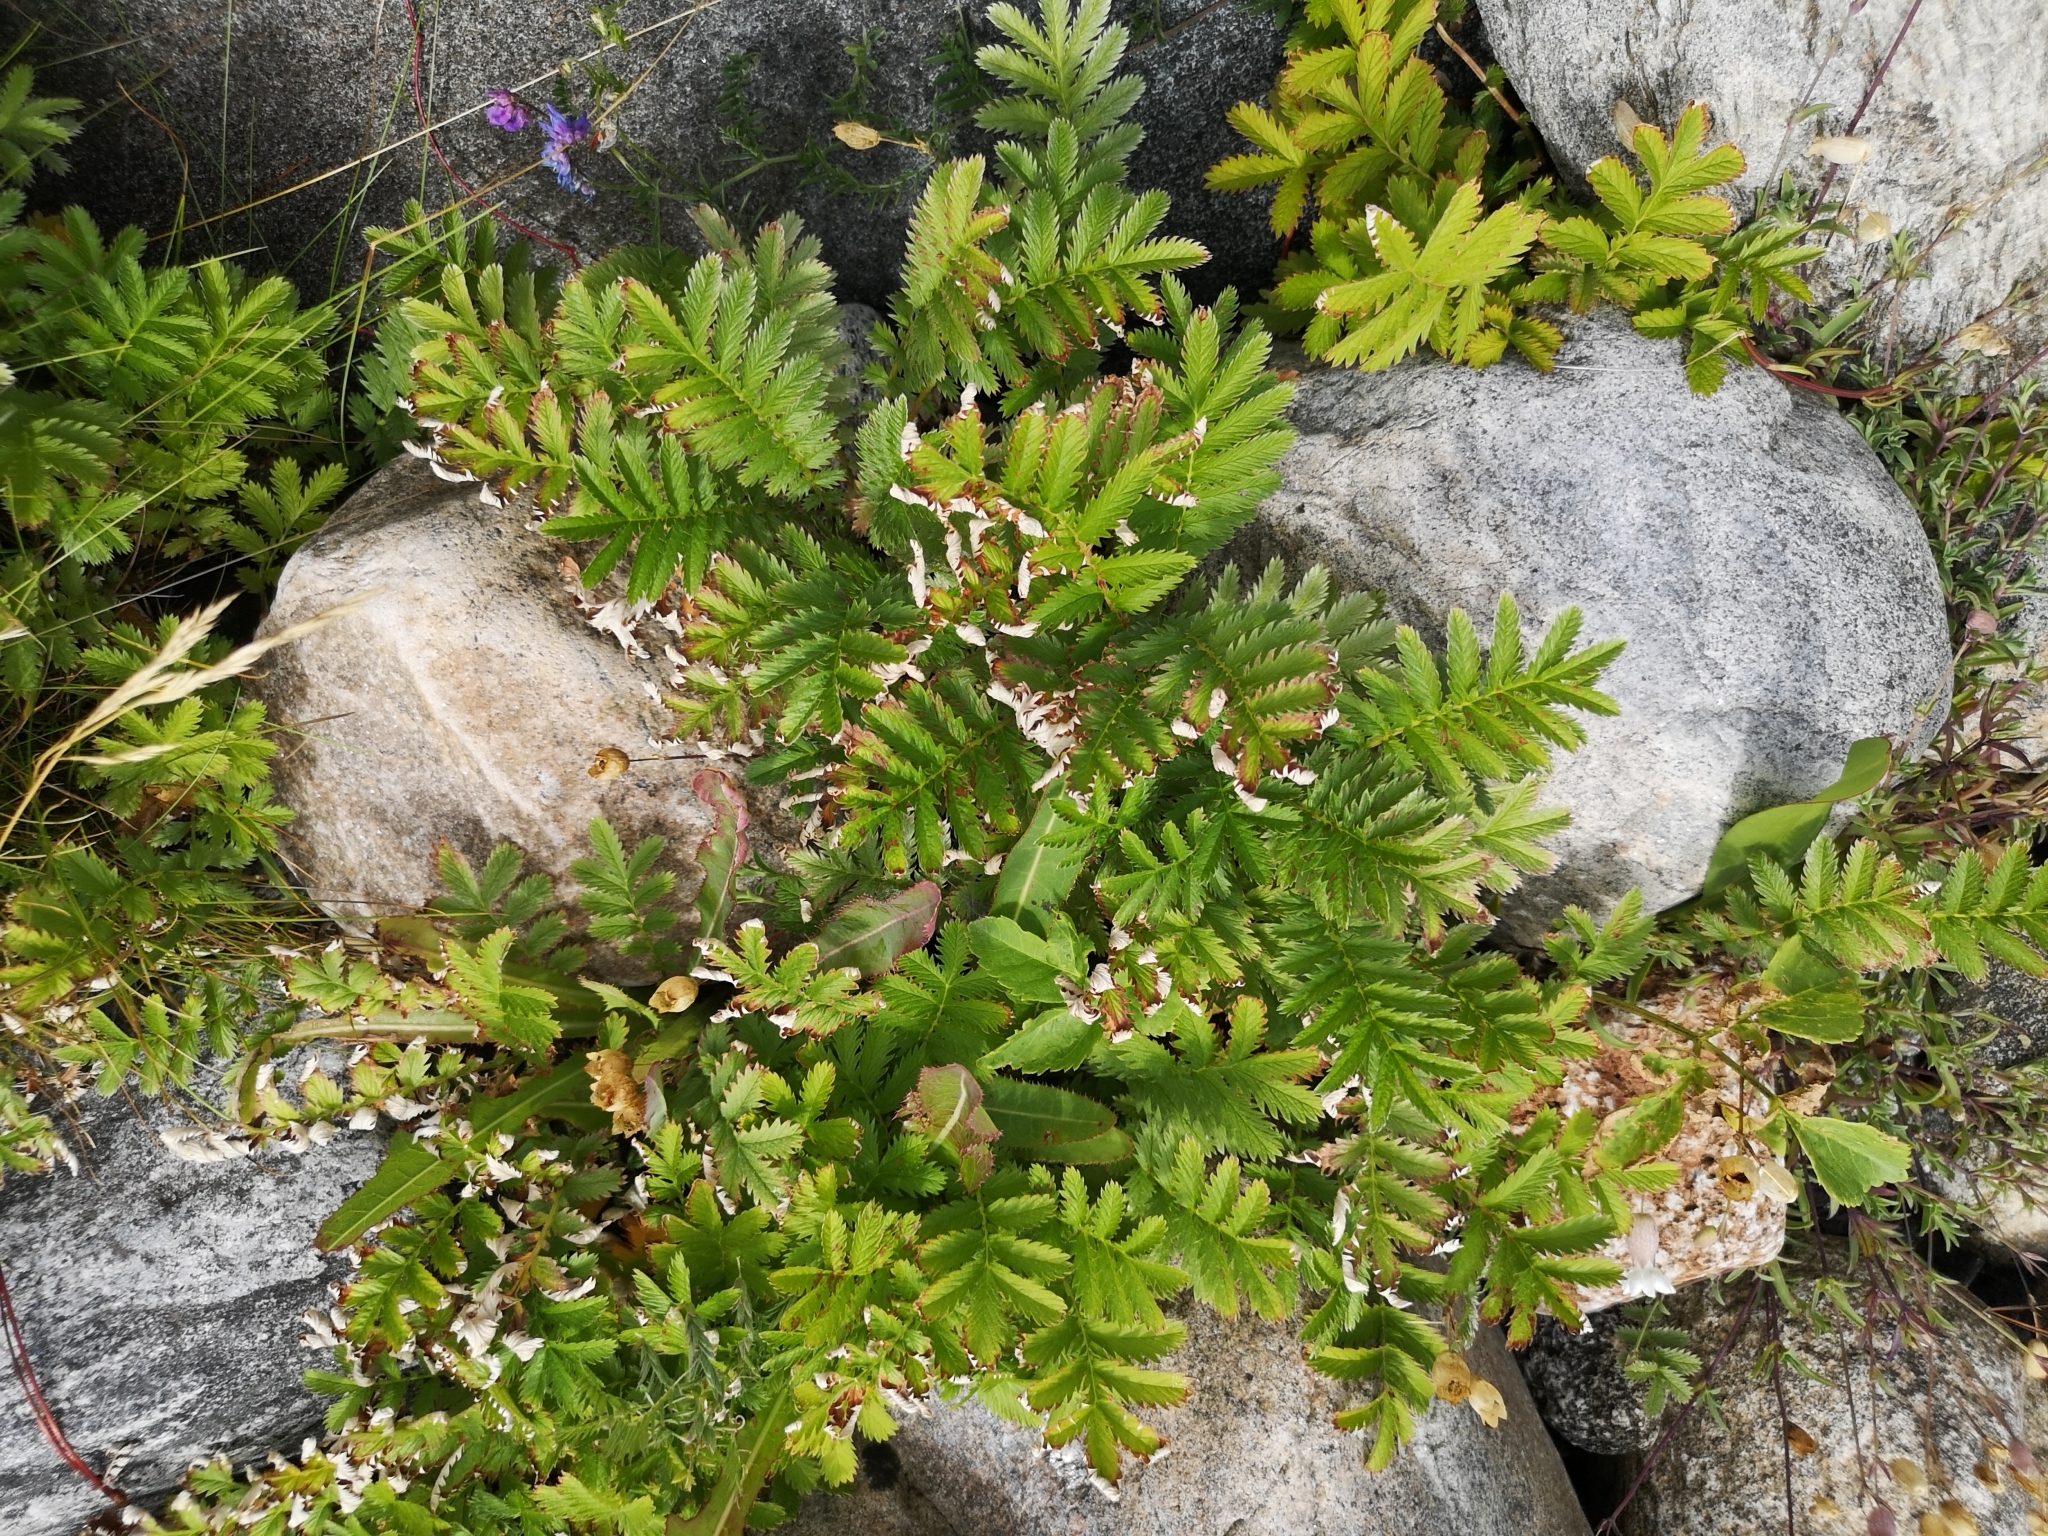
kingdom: Plantae
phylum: Tracheophyta
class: Magnoliopsida
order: Rosales
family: Rosaceae
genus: Argentina
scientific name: Argentina anserina
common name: Common silverweed
